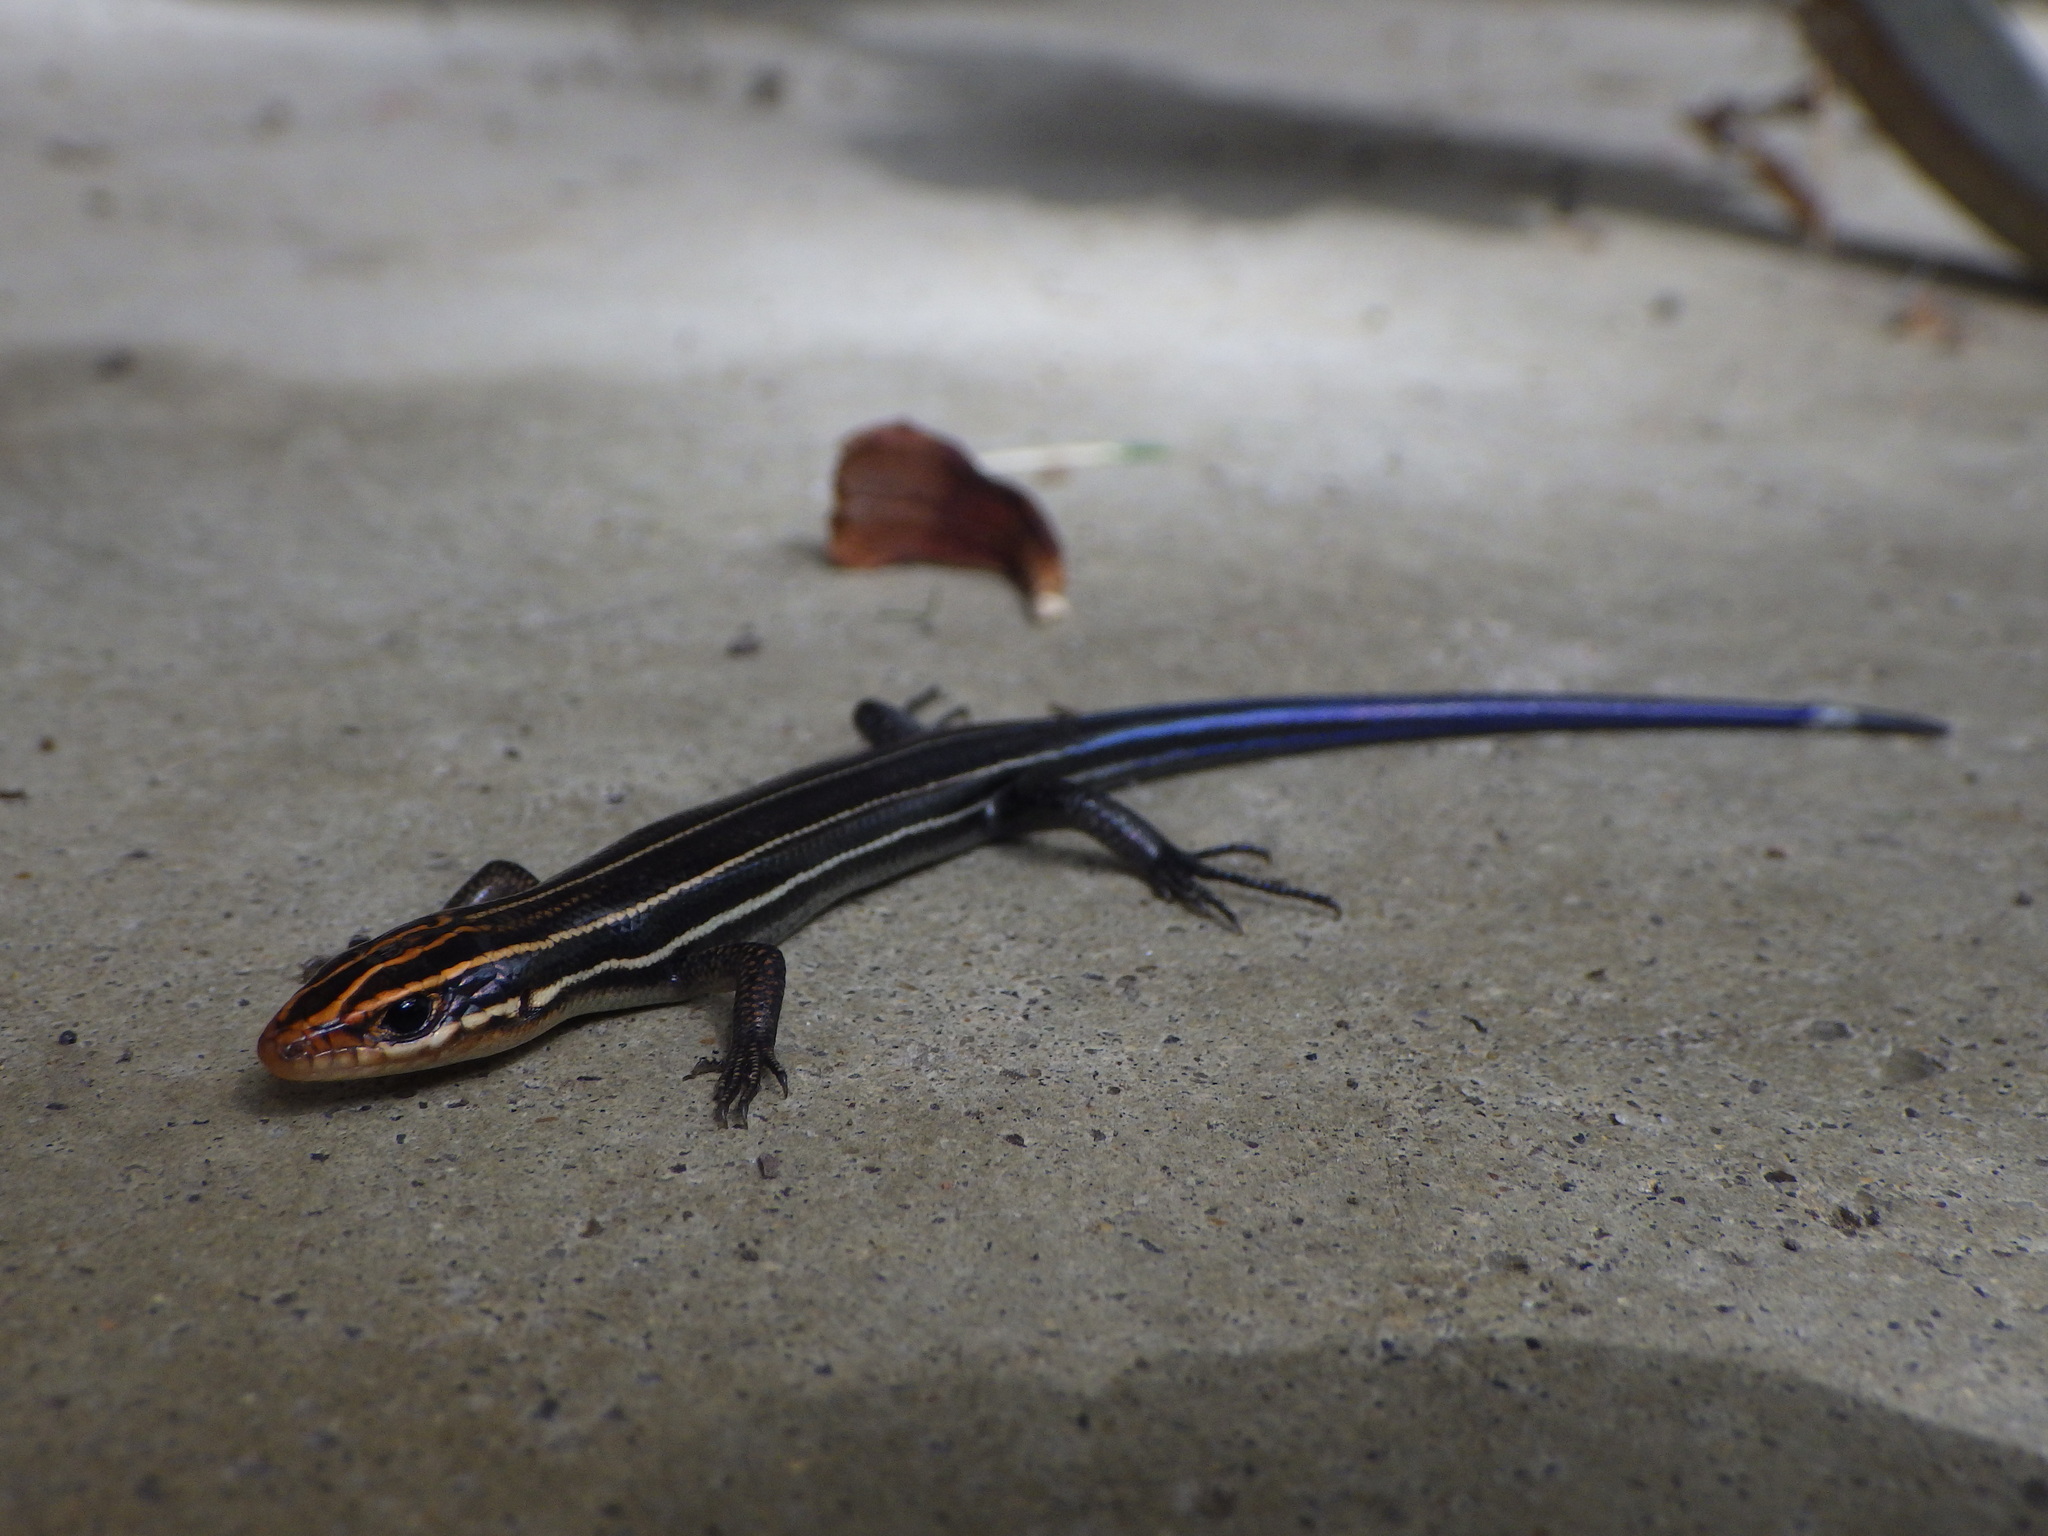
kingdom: Animalia
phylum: Chordata
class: Squamata
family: Scincidae
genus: Plestiodon
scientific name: Plestiodon inexpectatus
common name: Southeastern five-lined skink
